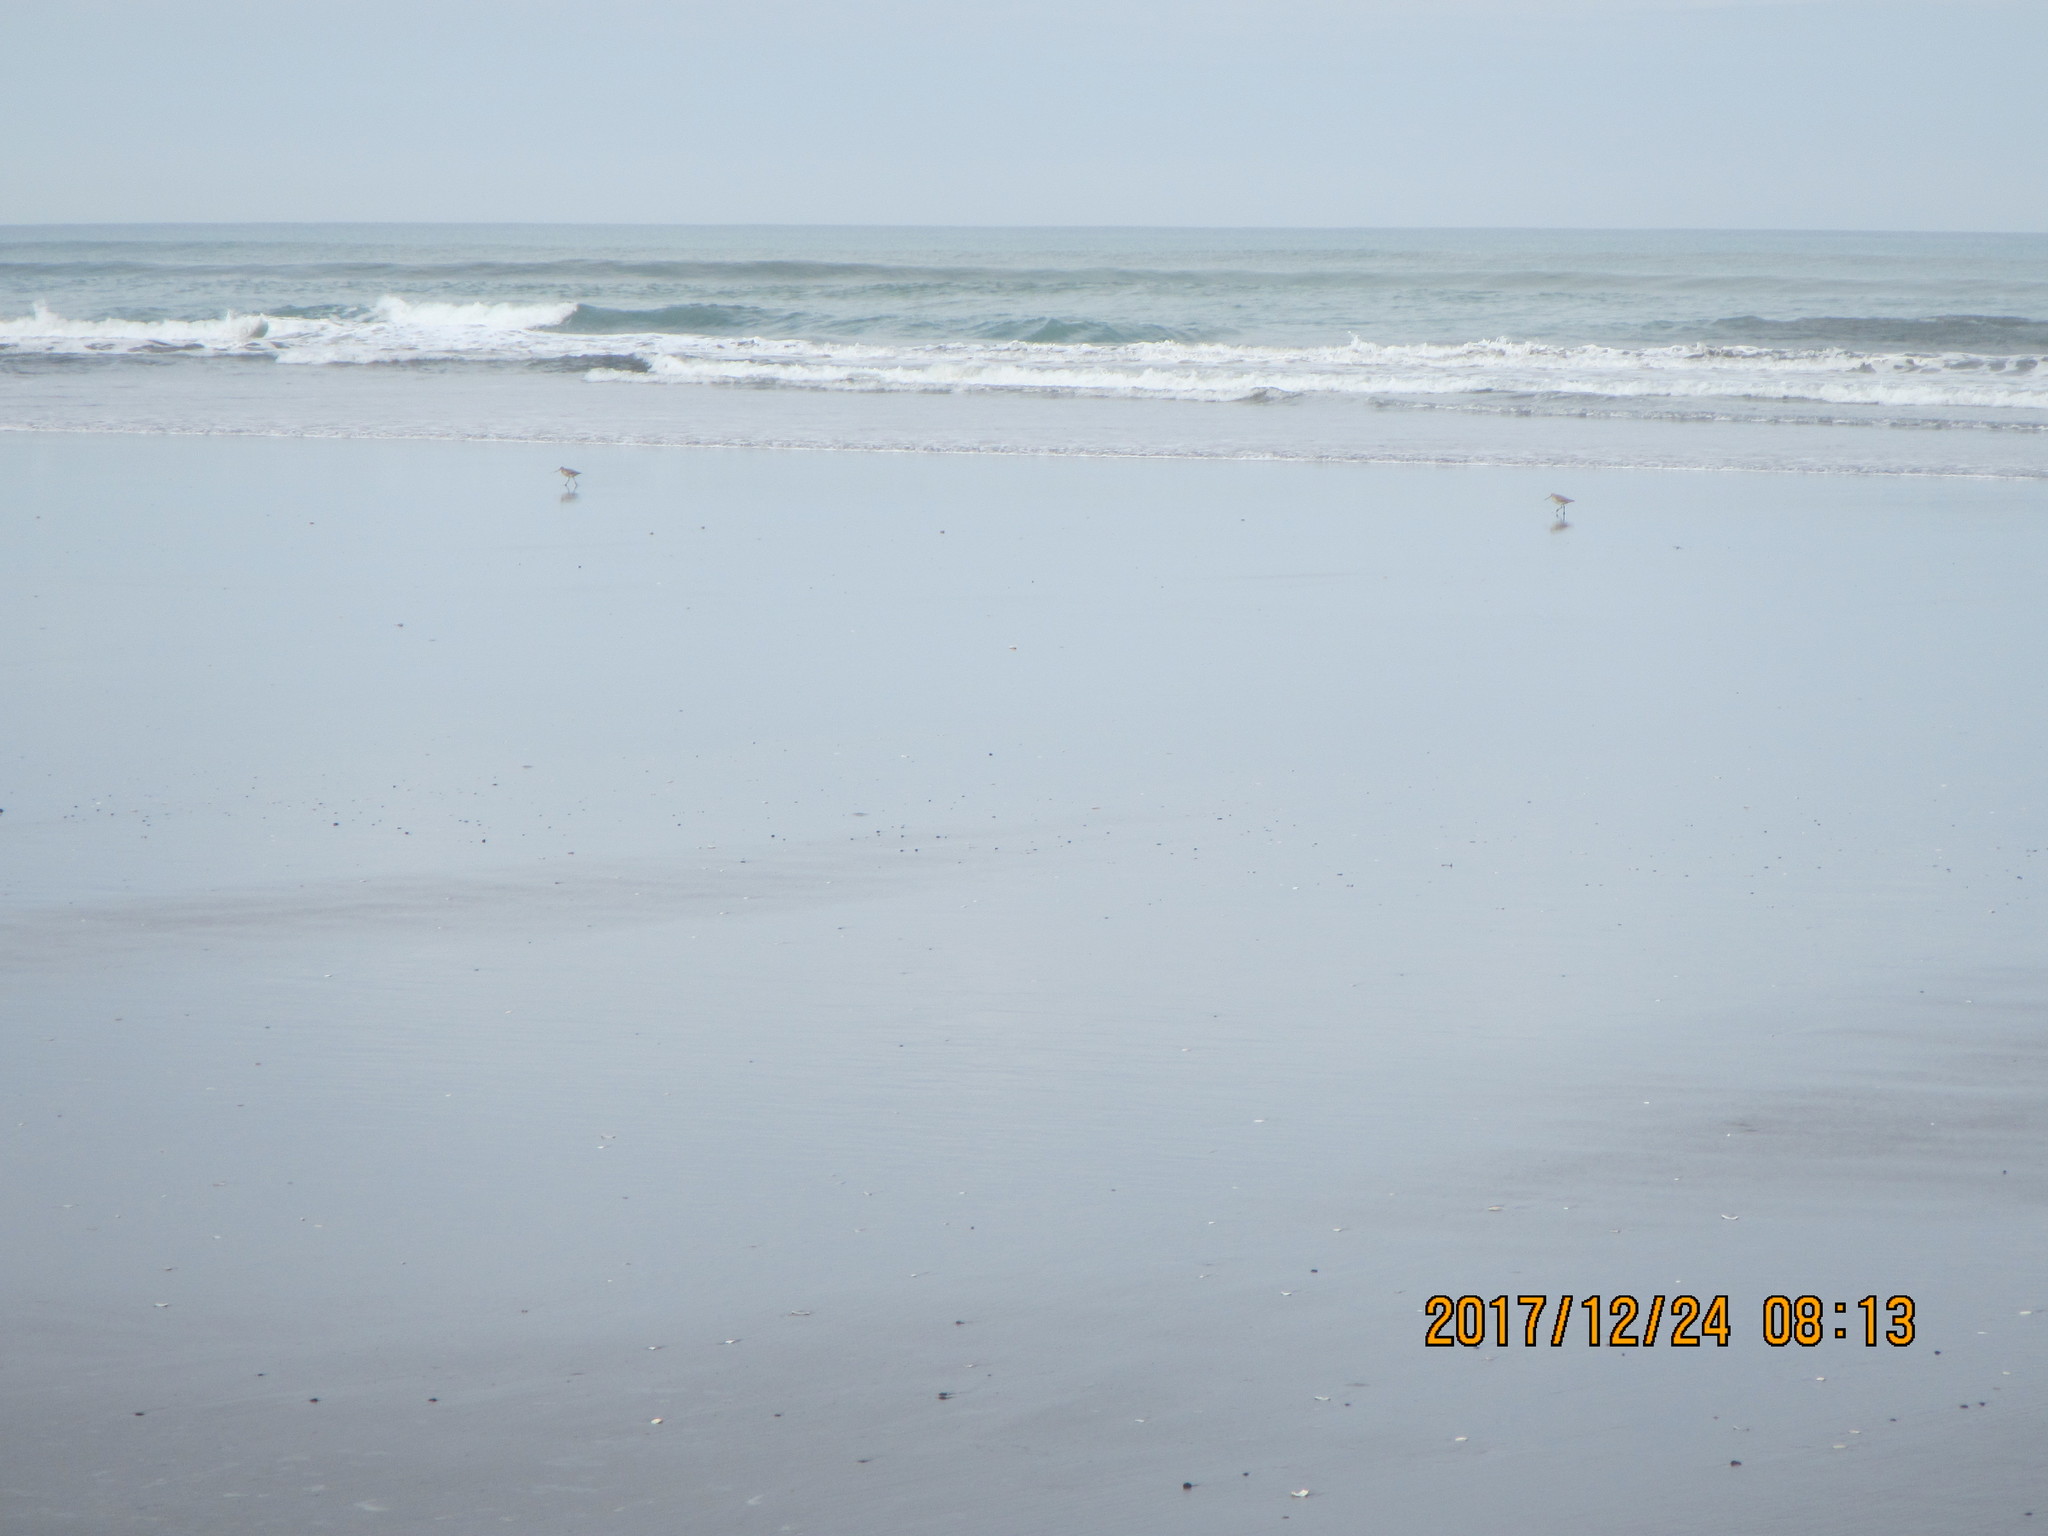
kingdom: Animalia
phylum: Chordata
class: Aves
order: Charadriiformes
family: Scolopacidae
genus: Limosa
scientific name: Limosa lapponica
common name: Bar-tailed godwit
